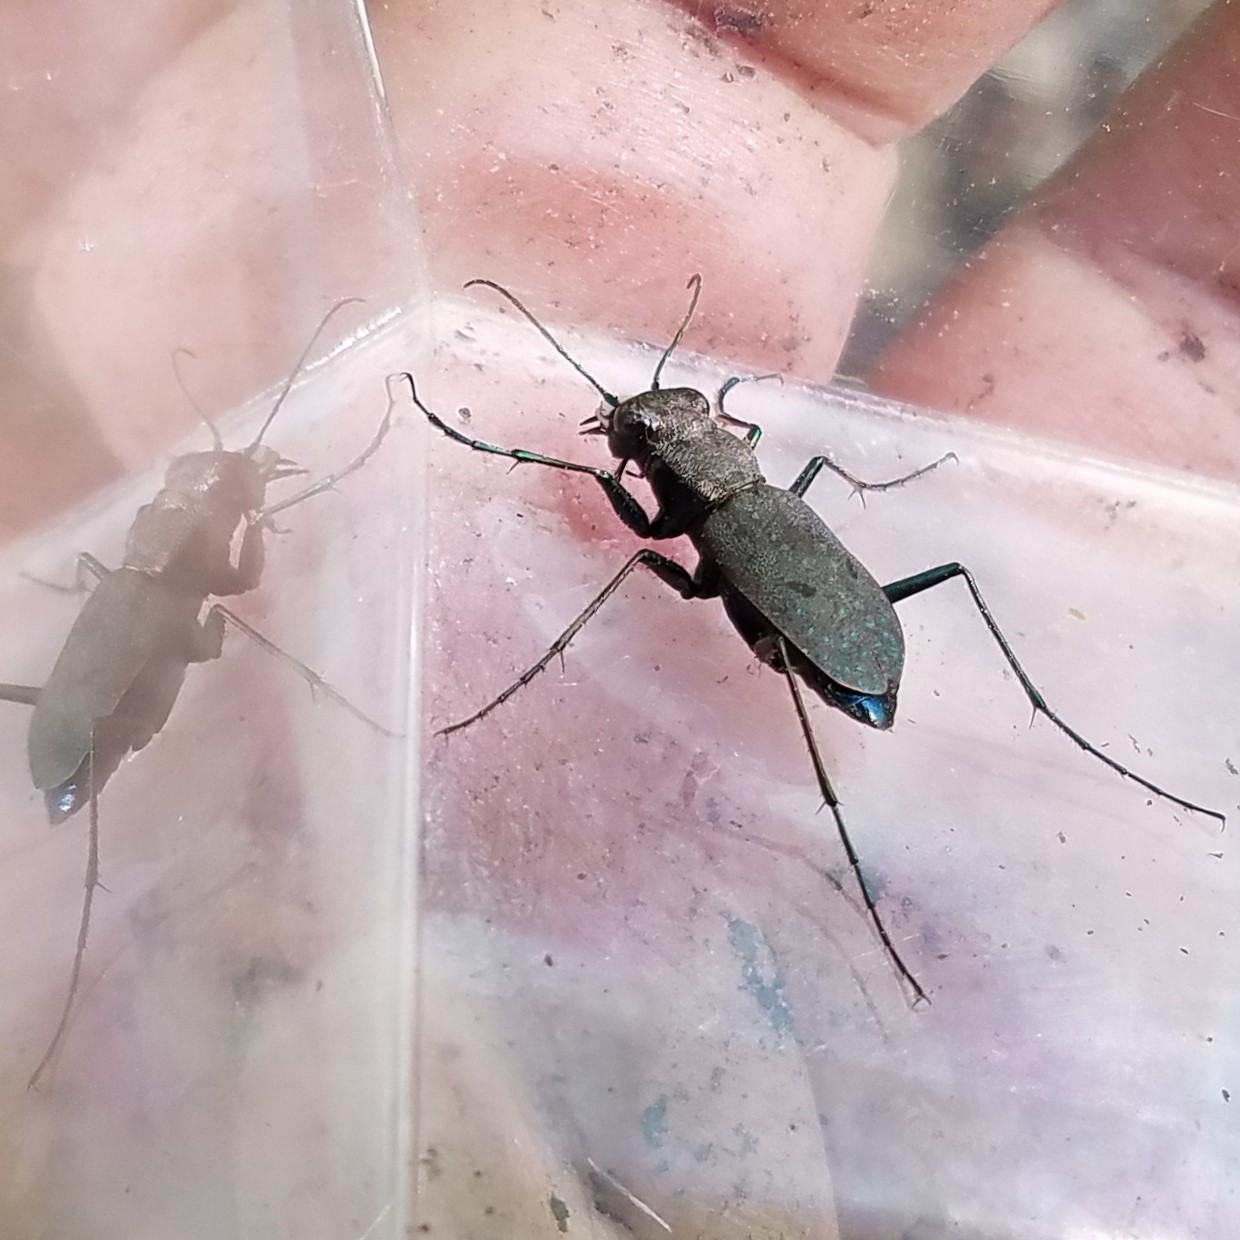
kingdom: Animalia
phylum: Arthropoda
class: Insecta
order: Coleoptera
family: Carabidae
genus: Cylindera
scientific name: Cylindera unipunctata
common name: One-spotted tiger beetle
